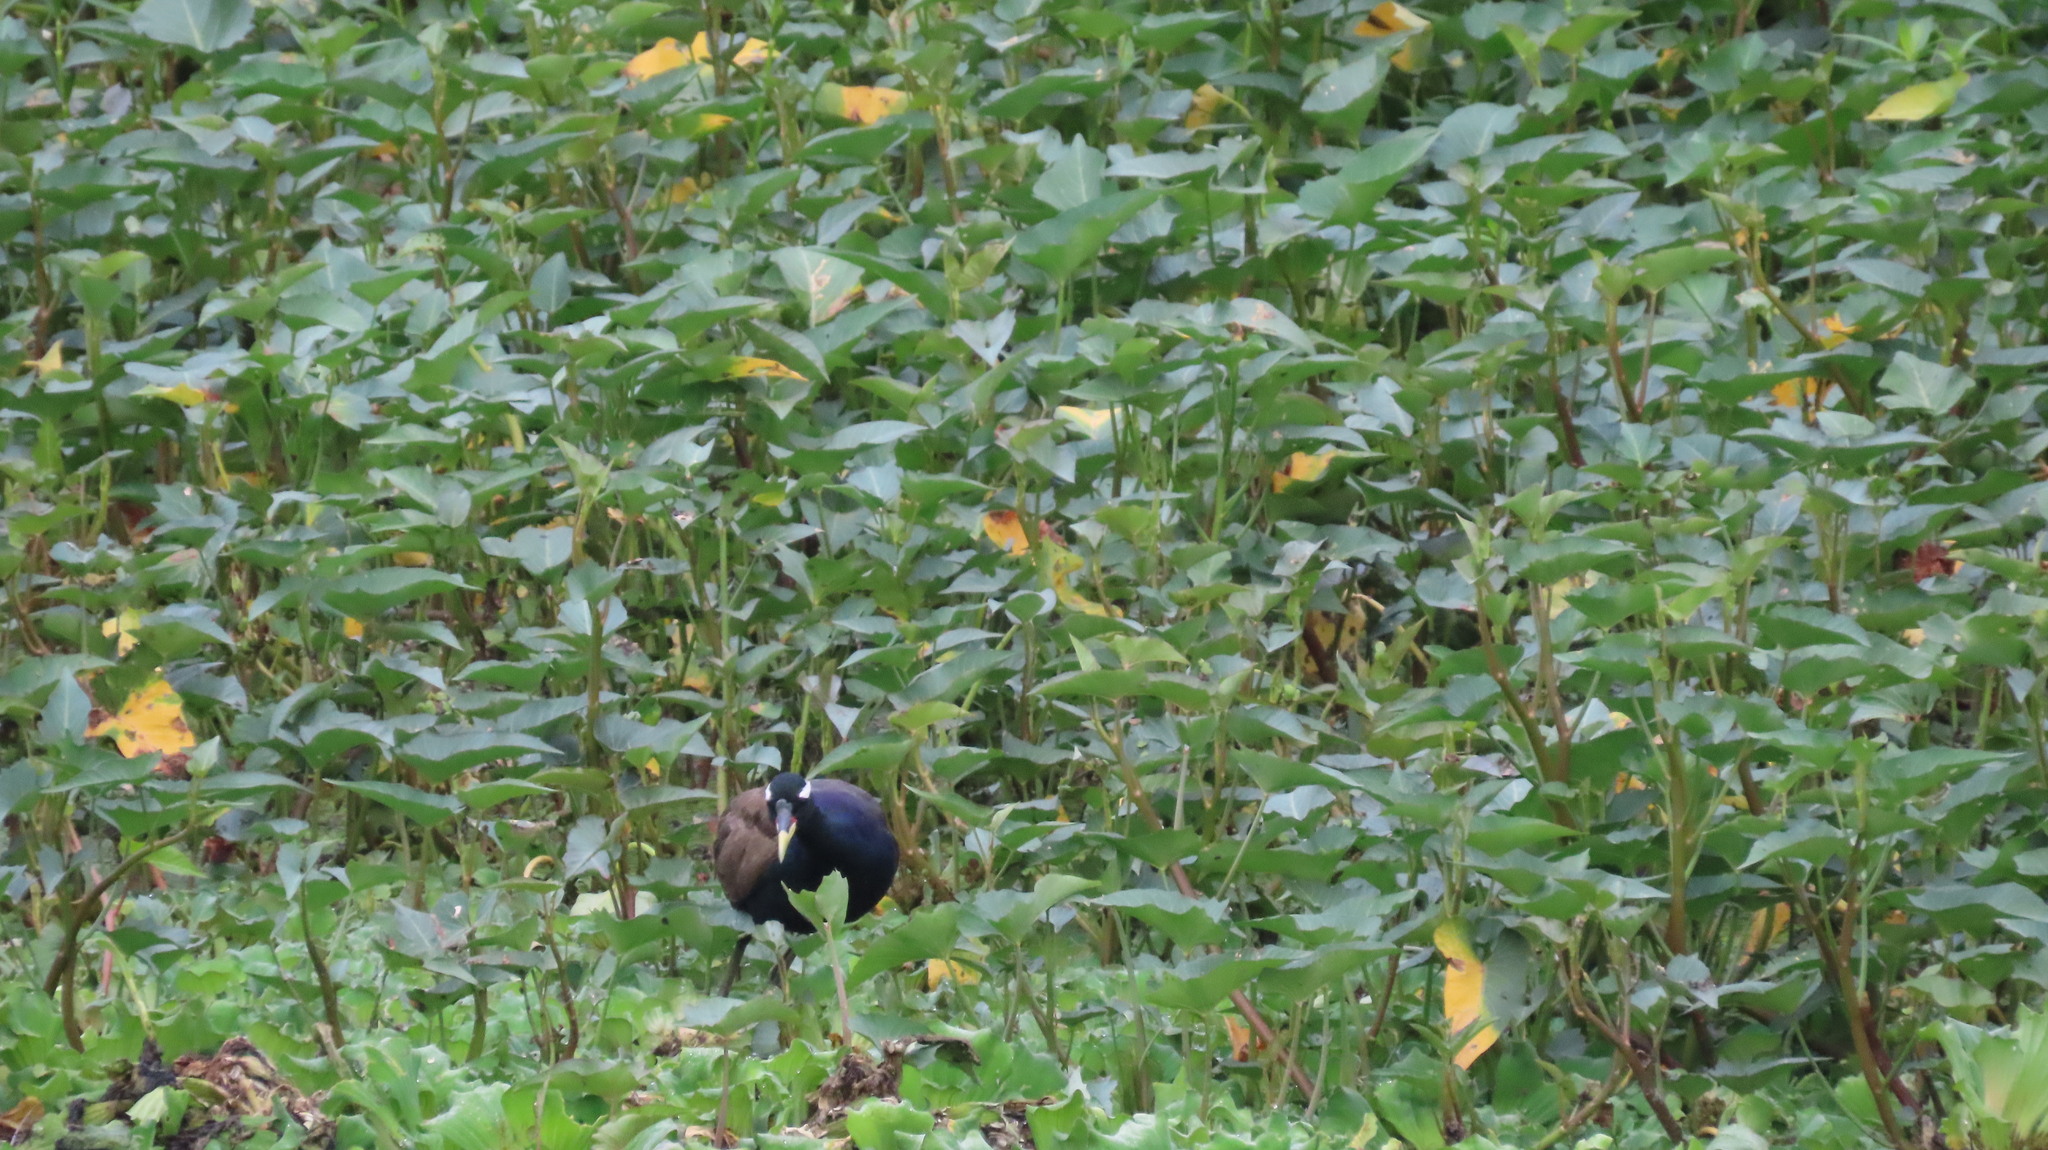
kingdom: Animalia
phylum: Chordata
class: Aves
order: Charadriiformes
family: Jacanidae
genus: Metopidius
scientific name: Metopidius indicus
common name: Bronze-winged jacana
